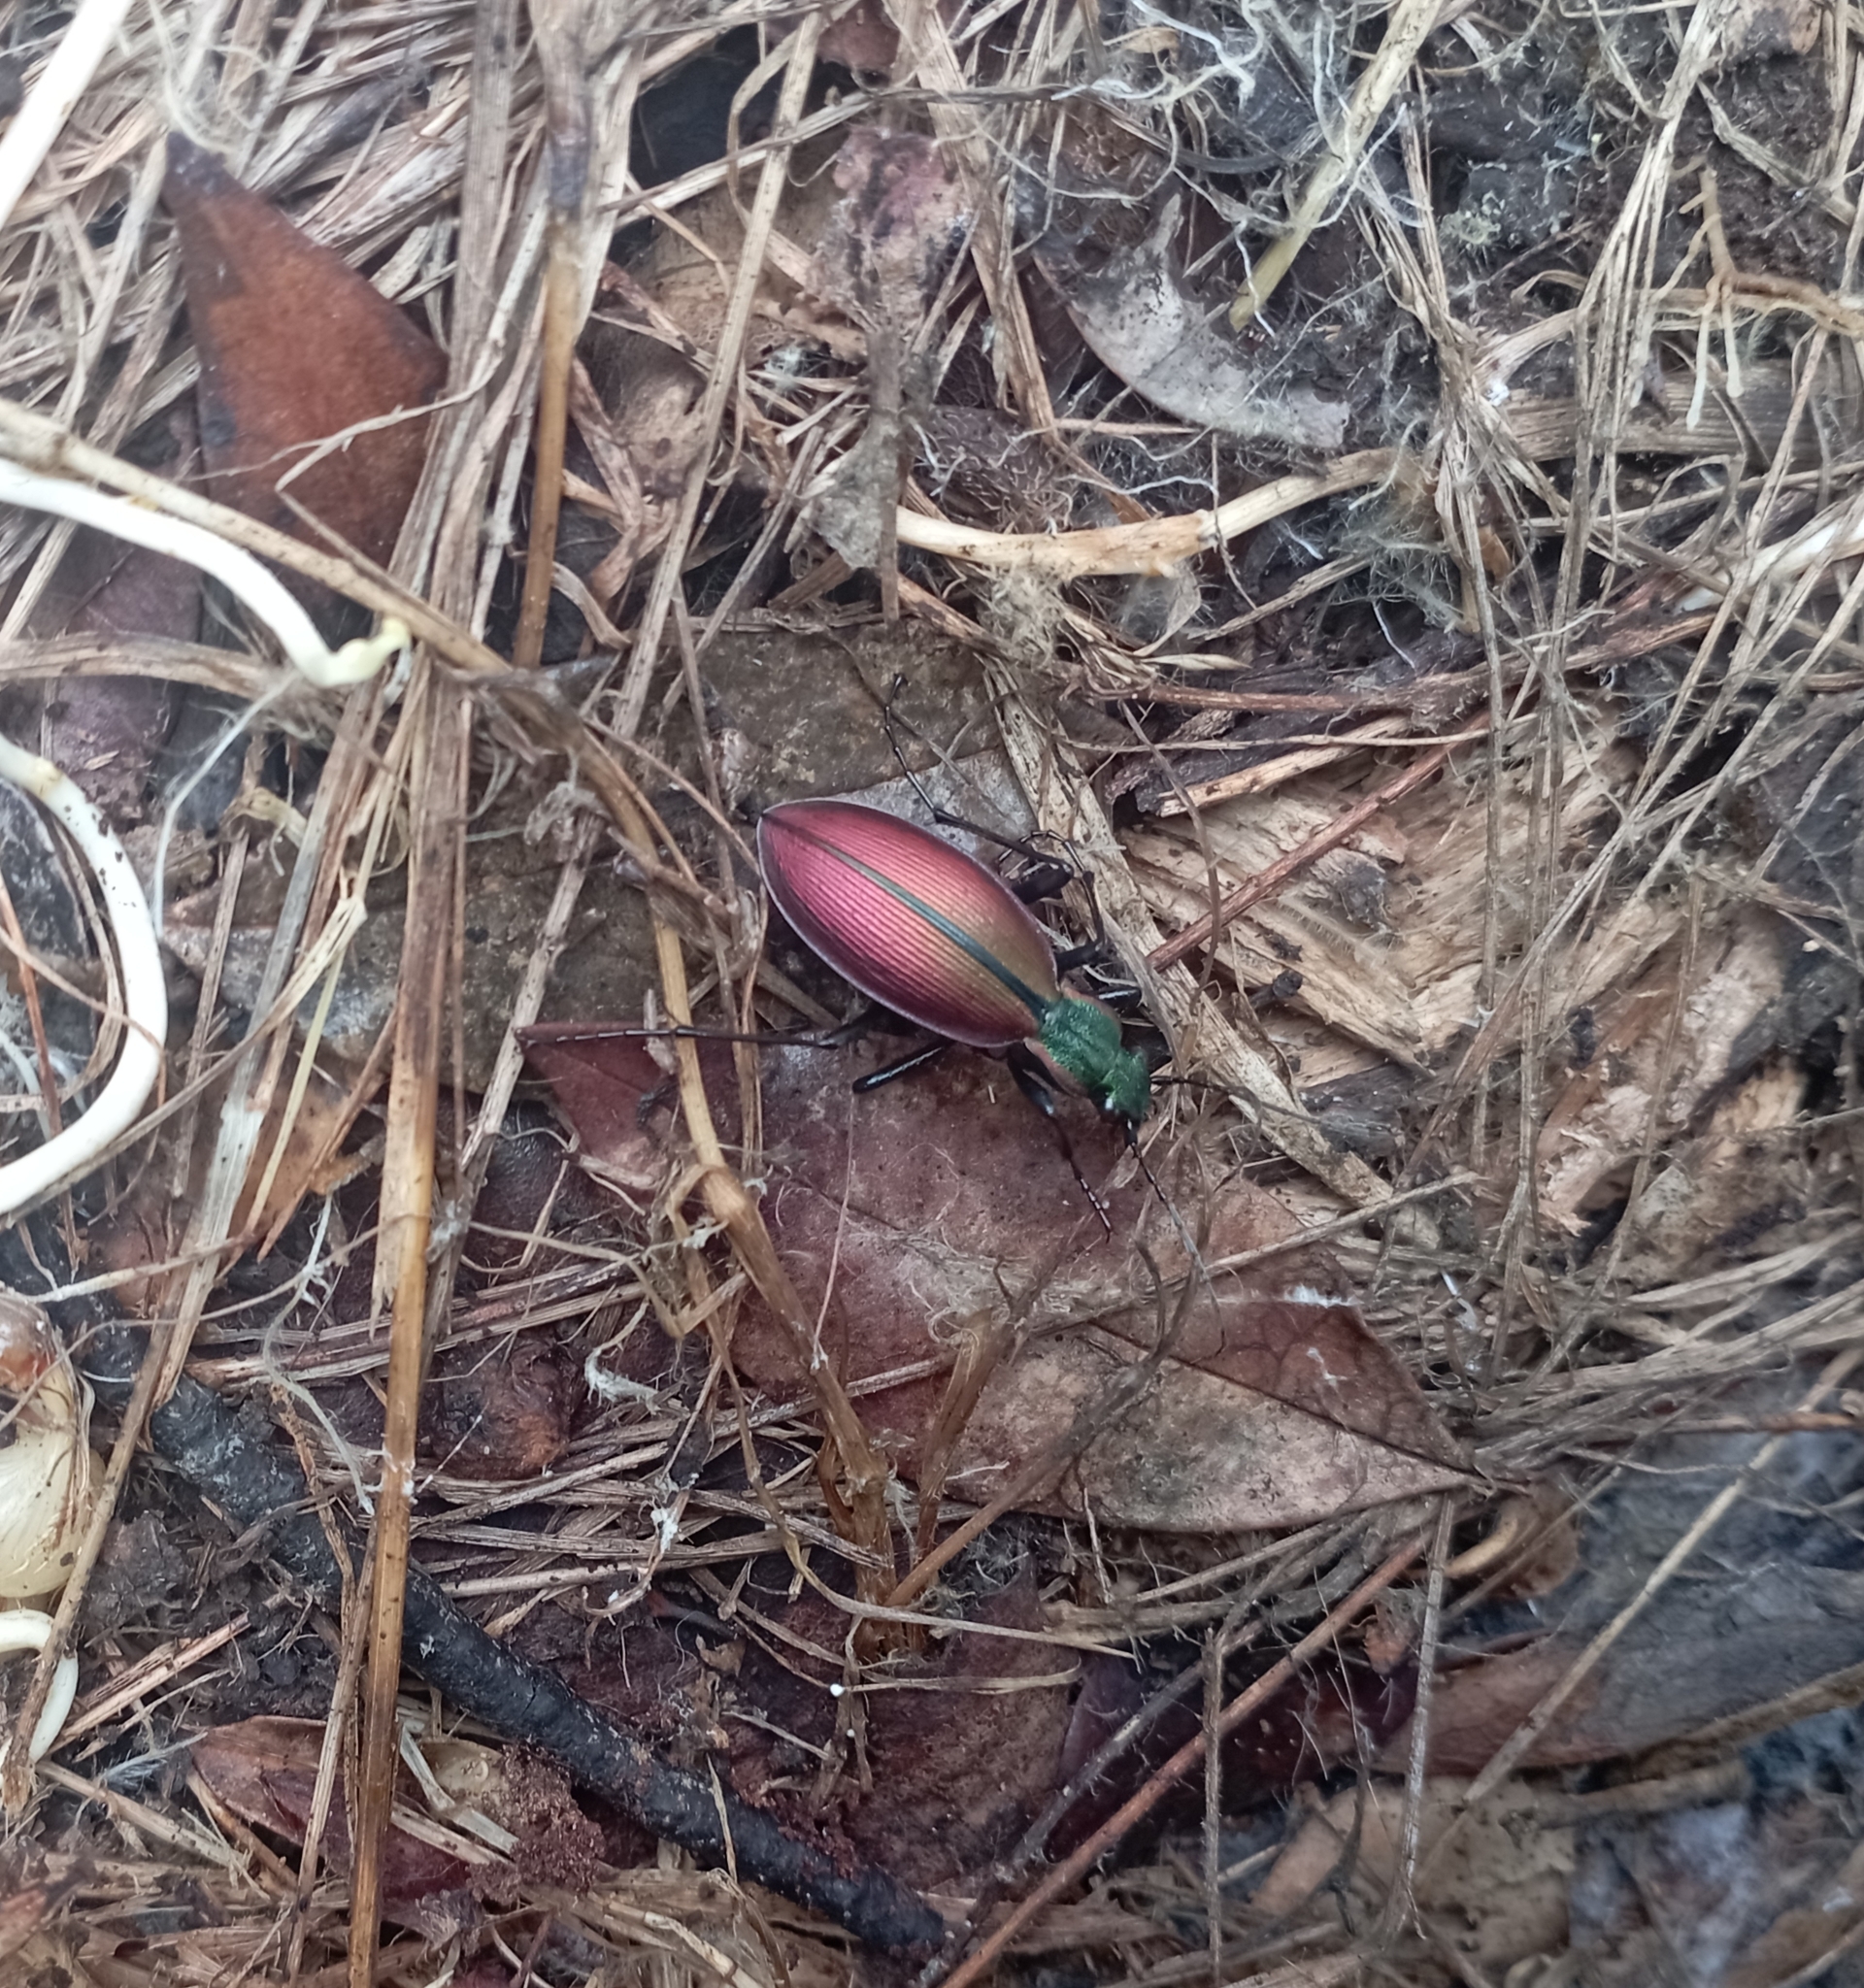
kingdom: Animalia
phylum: Arthropoda
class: Insecta
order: Coleoptera
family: Carabidae
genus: Ceroglossus
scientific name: Ceroglossus chilensis
